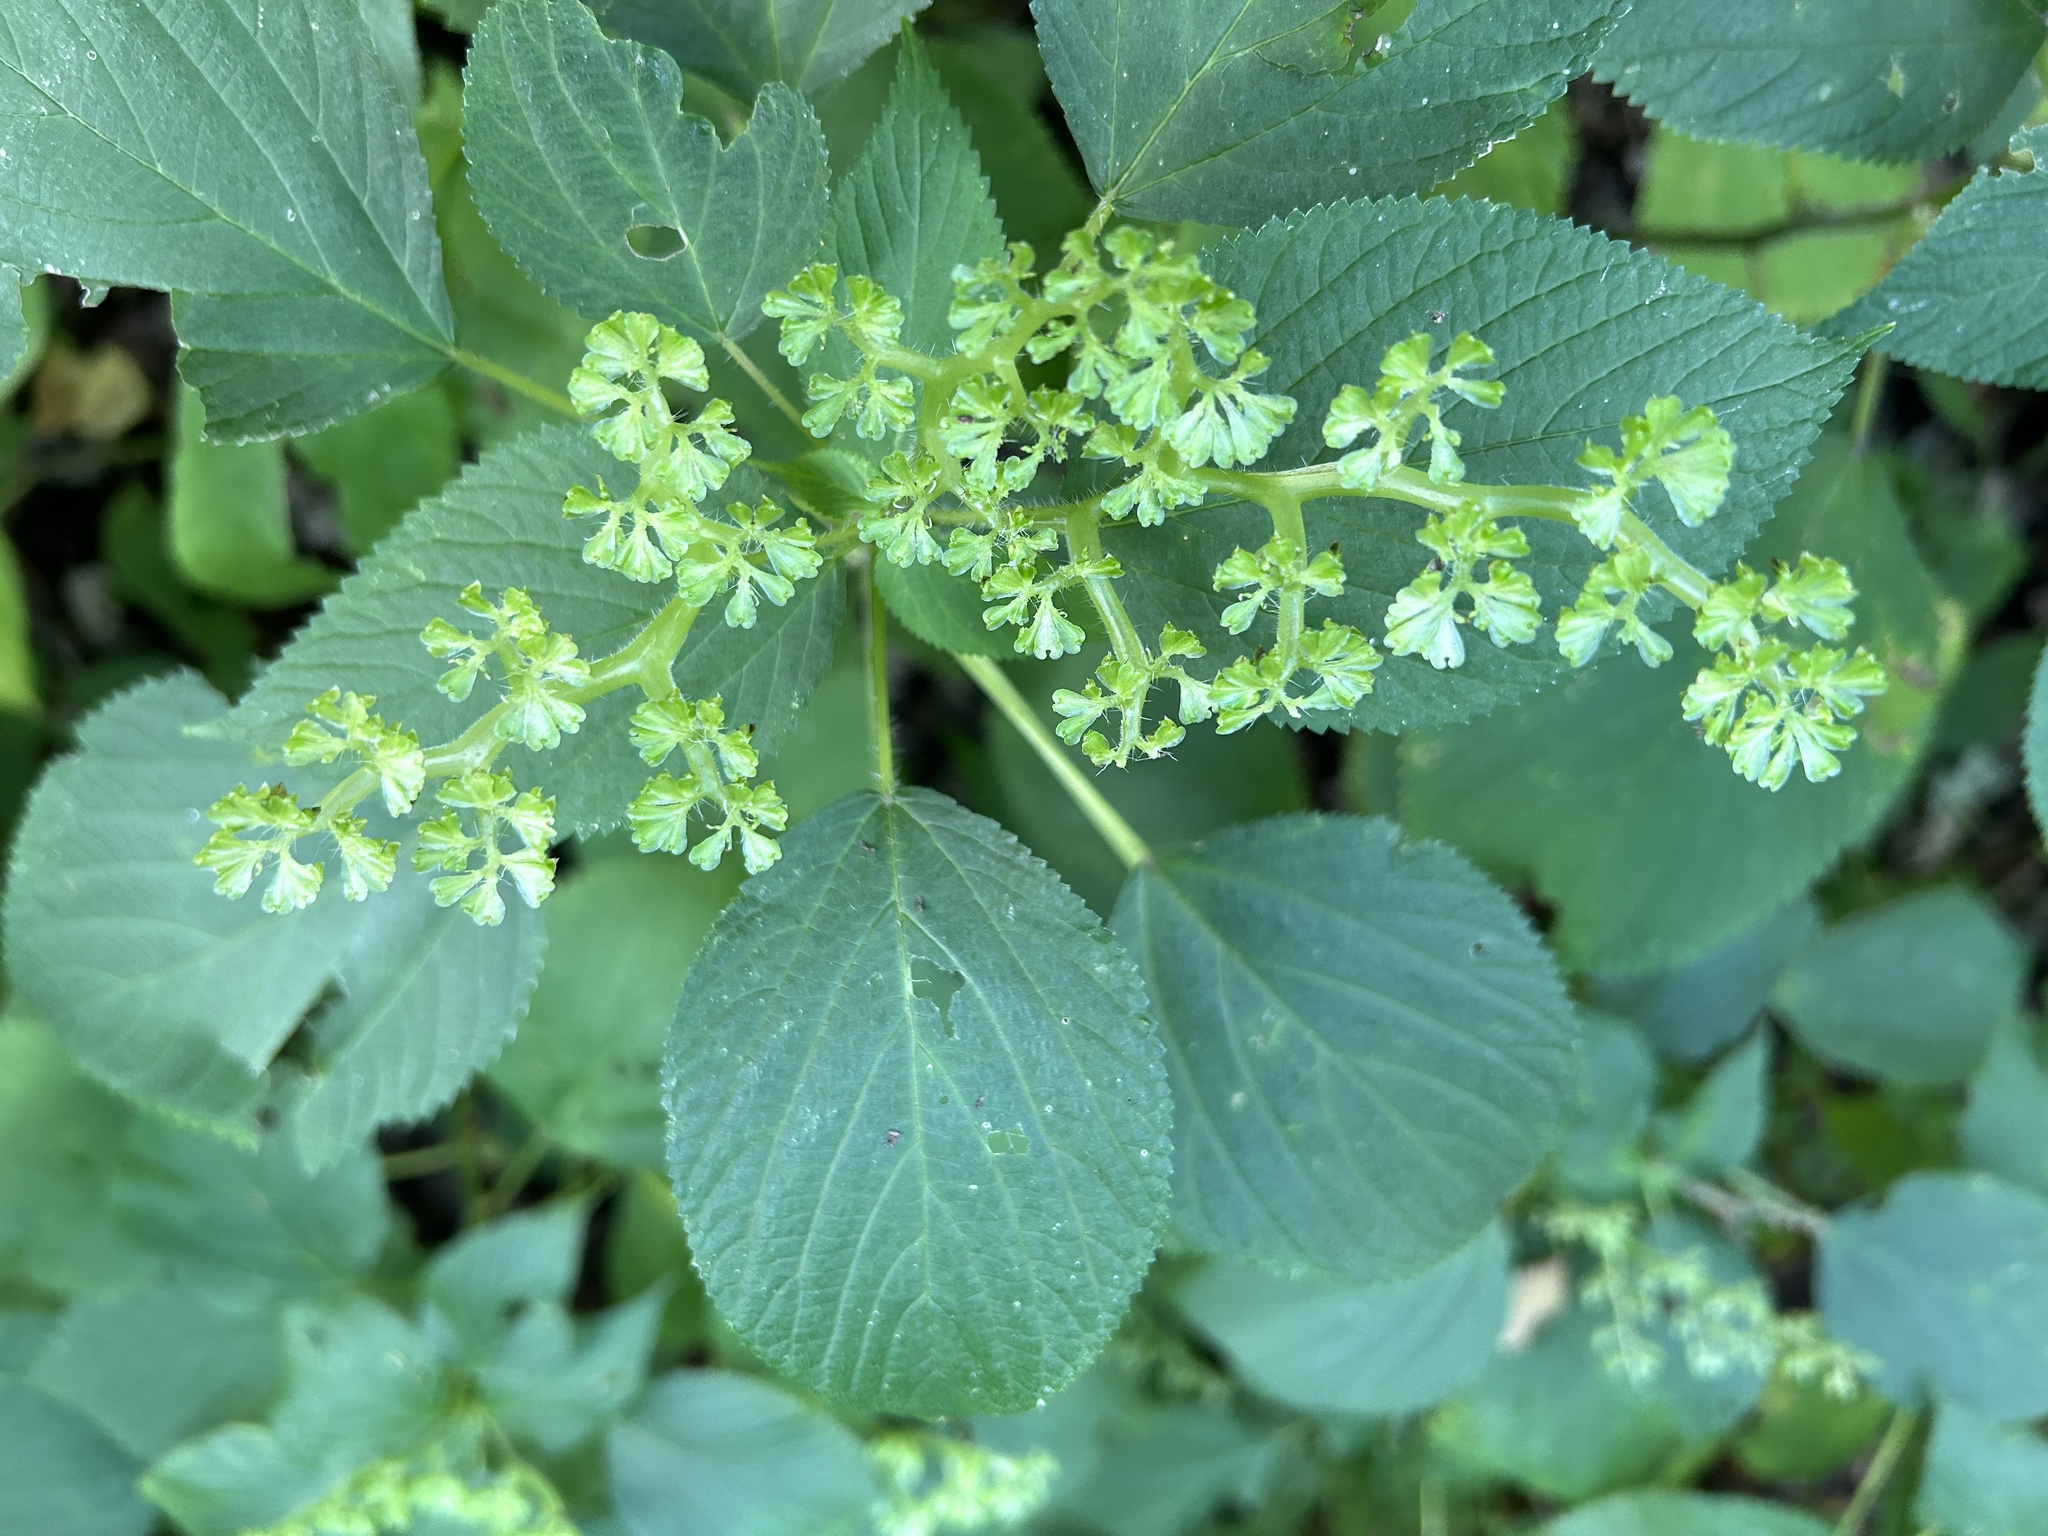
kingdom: Plantae
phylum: Tracheophyta
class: Magnoliopsida
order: Rosales
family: Urticaceae
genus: Laportea
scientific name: Laportea canadensis
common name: Canada nettle
